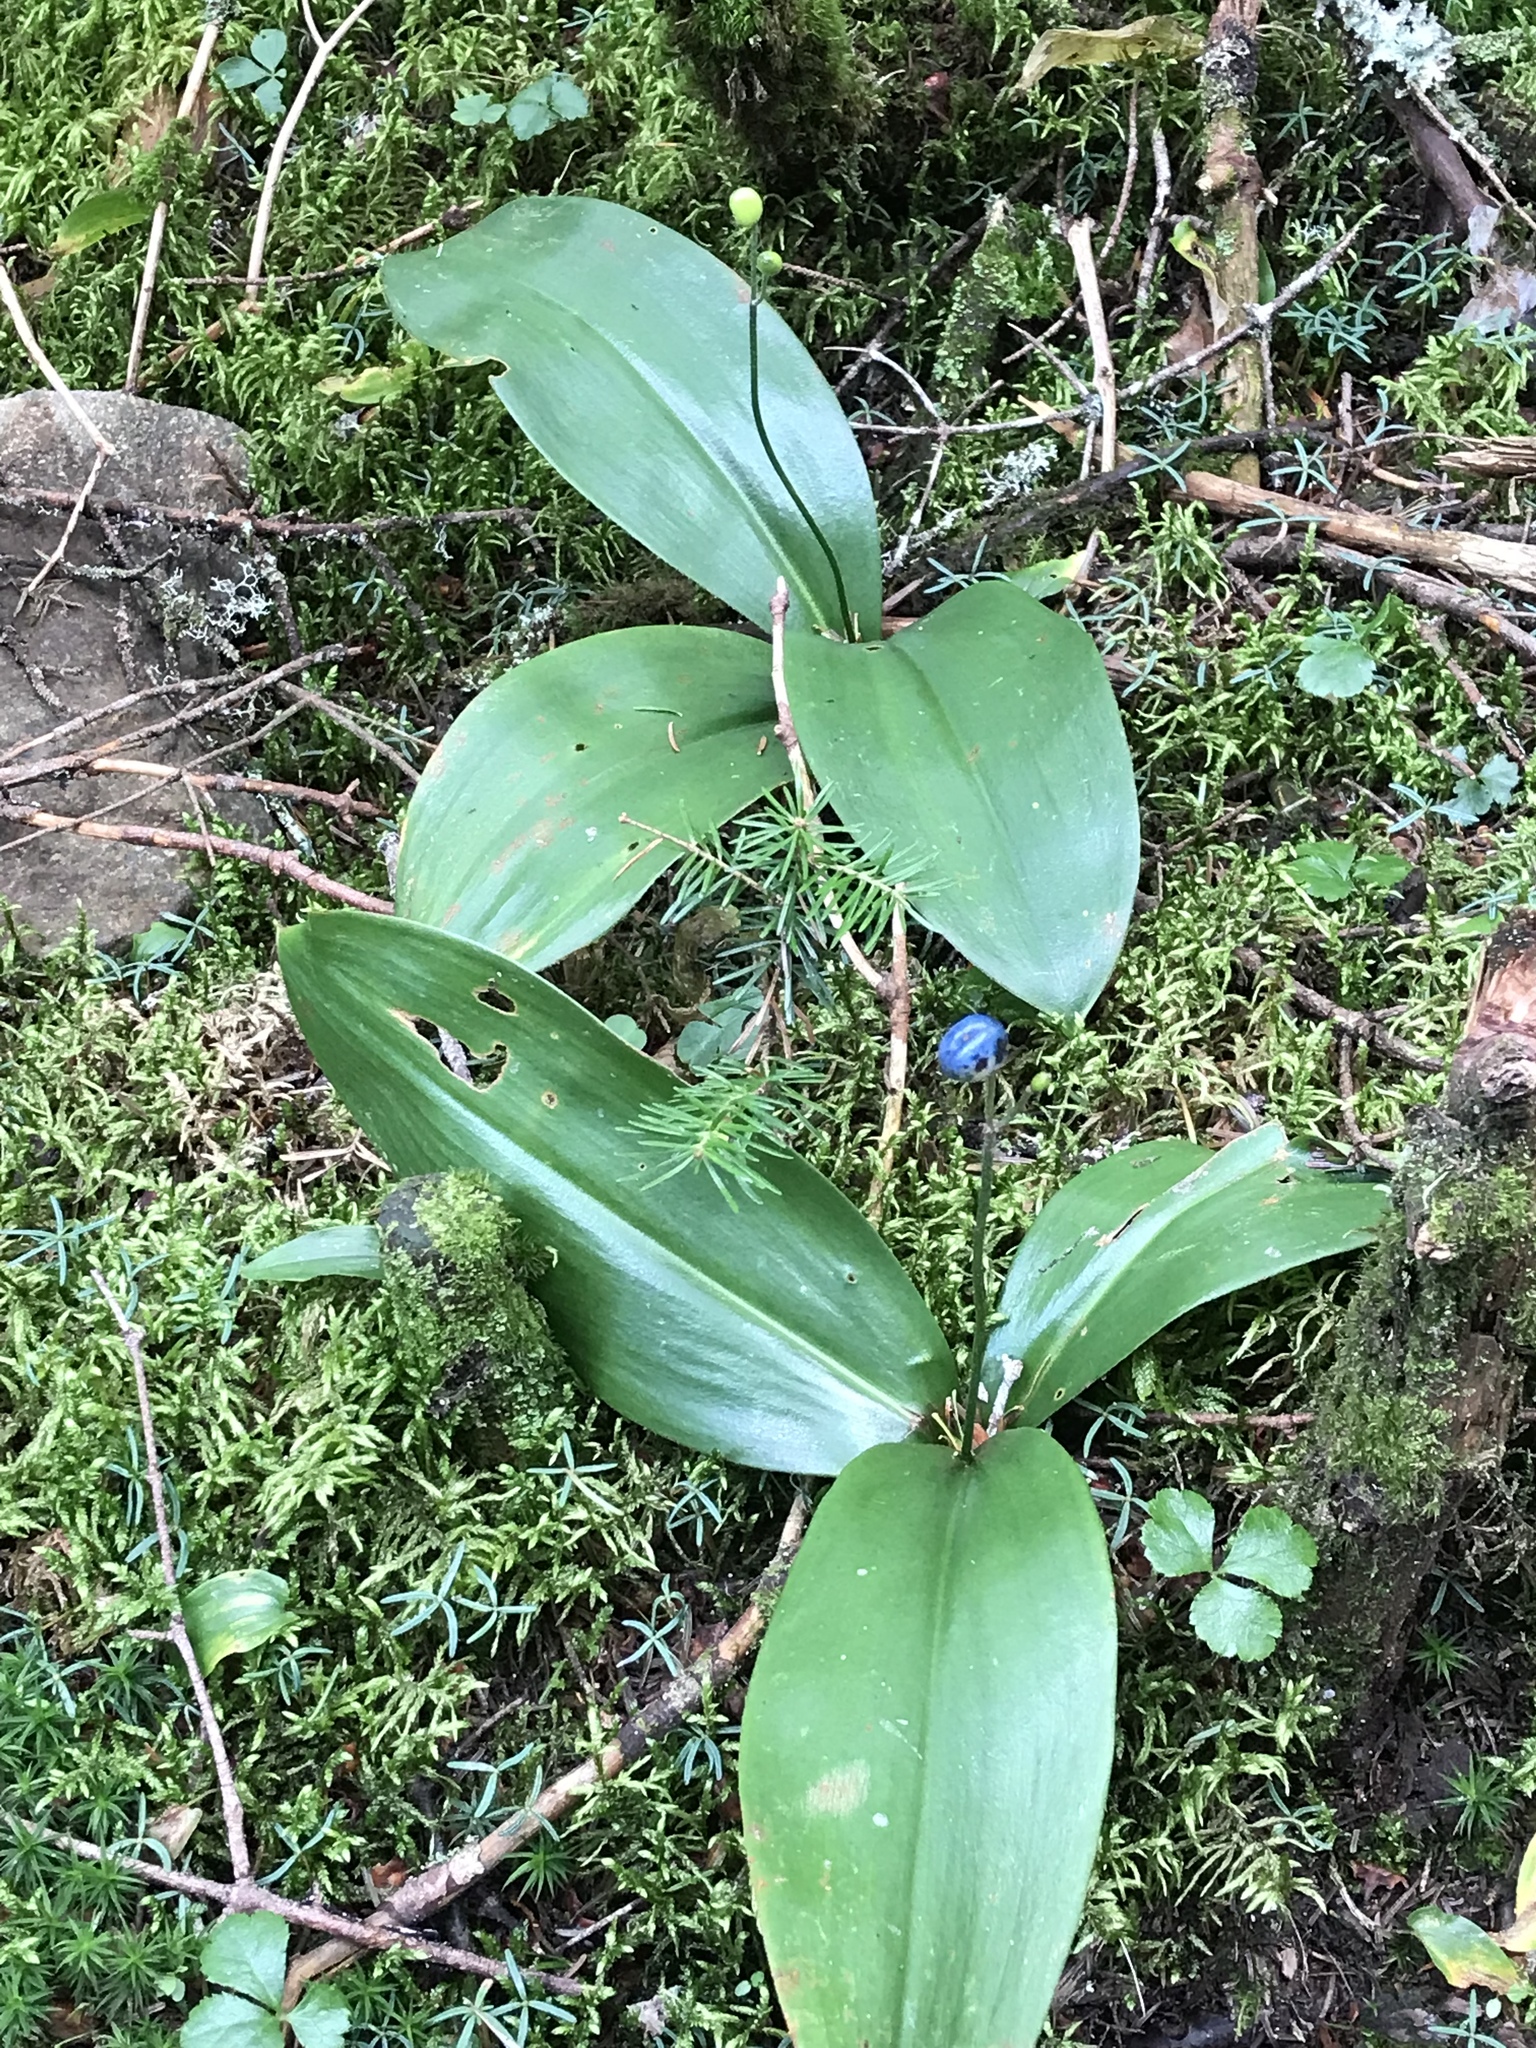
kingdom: Plantae
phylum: Tracheophyta
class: Liliopsida
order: Liliales
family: Liliaceae
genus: Clintonia
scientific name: Clintonia borealis
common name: Yellow clintonia
